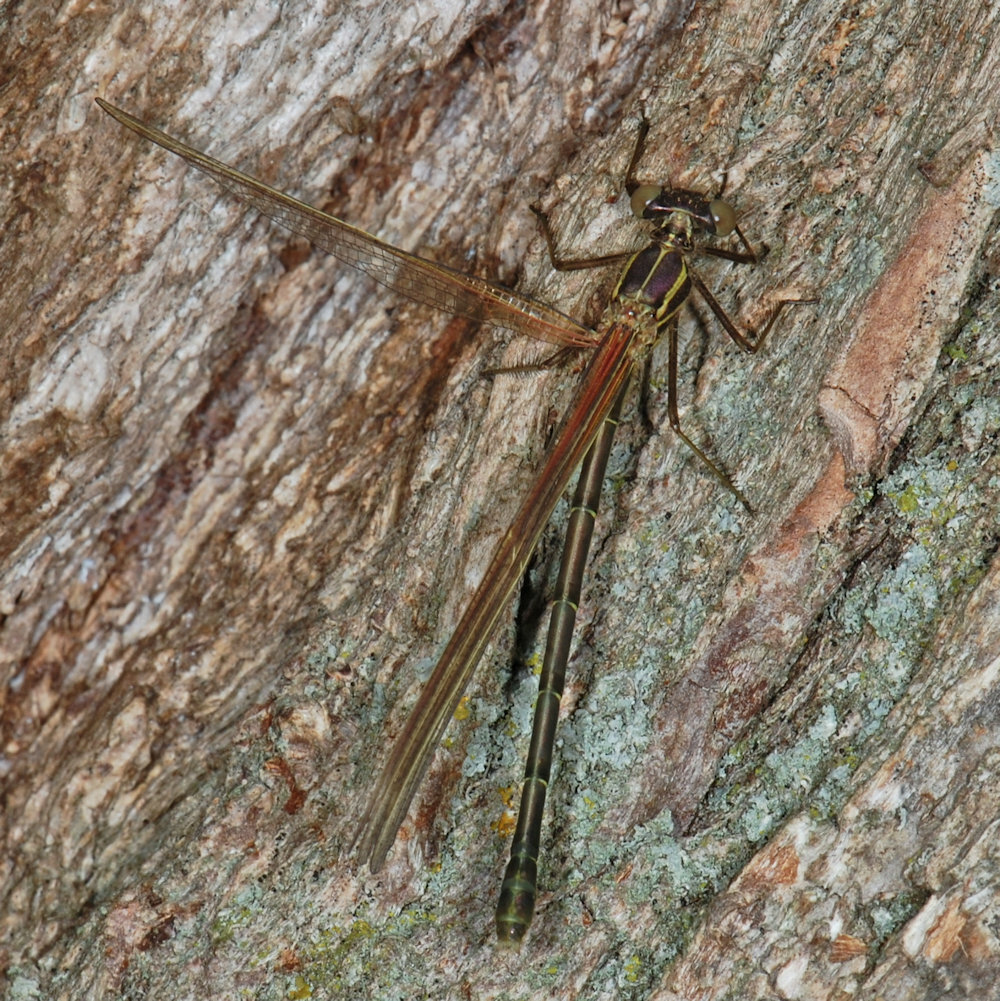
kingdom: Animalia
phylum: Arthropoda
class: Insecta
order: Odonata
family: Calopterygidae
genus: Hetaerina
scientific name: Hetaerina americana
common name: American rubyspot
